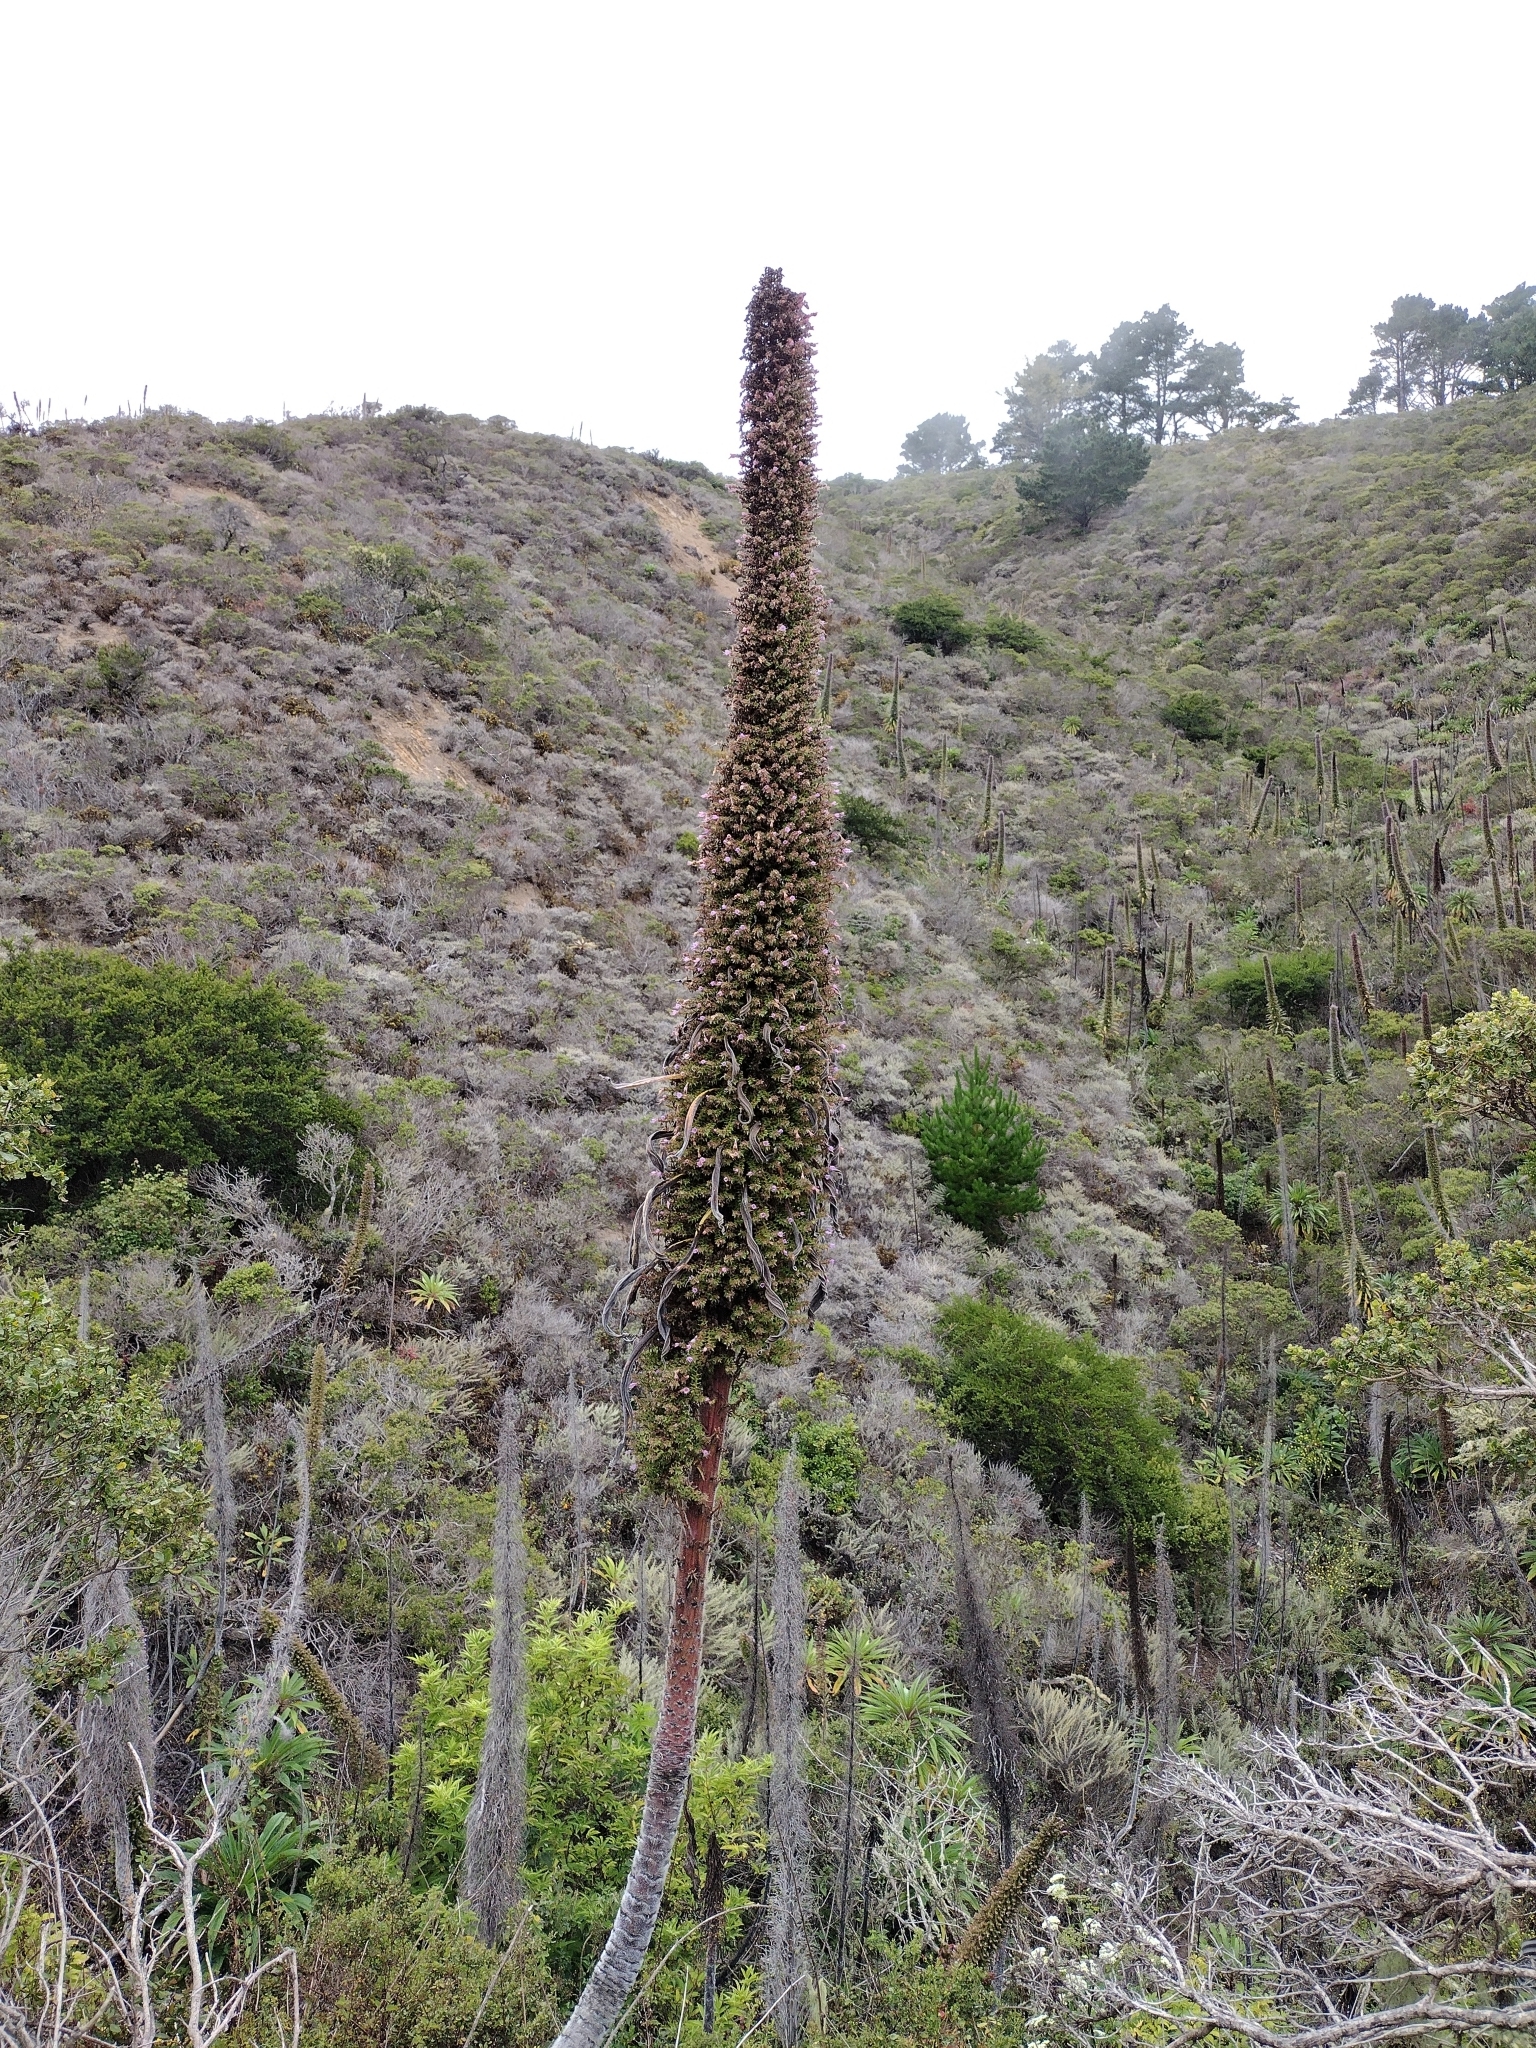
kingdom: Plantae
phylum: Tracheophyta
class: Magnoliopsida
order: Boraginales
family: Boraginaceae
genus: Echium
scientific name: Echium pininana
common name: Giant viper's-bugloss
